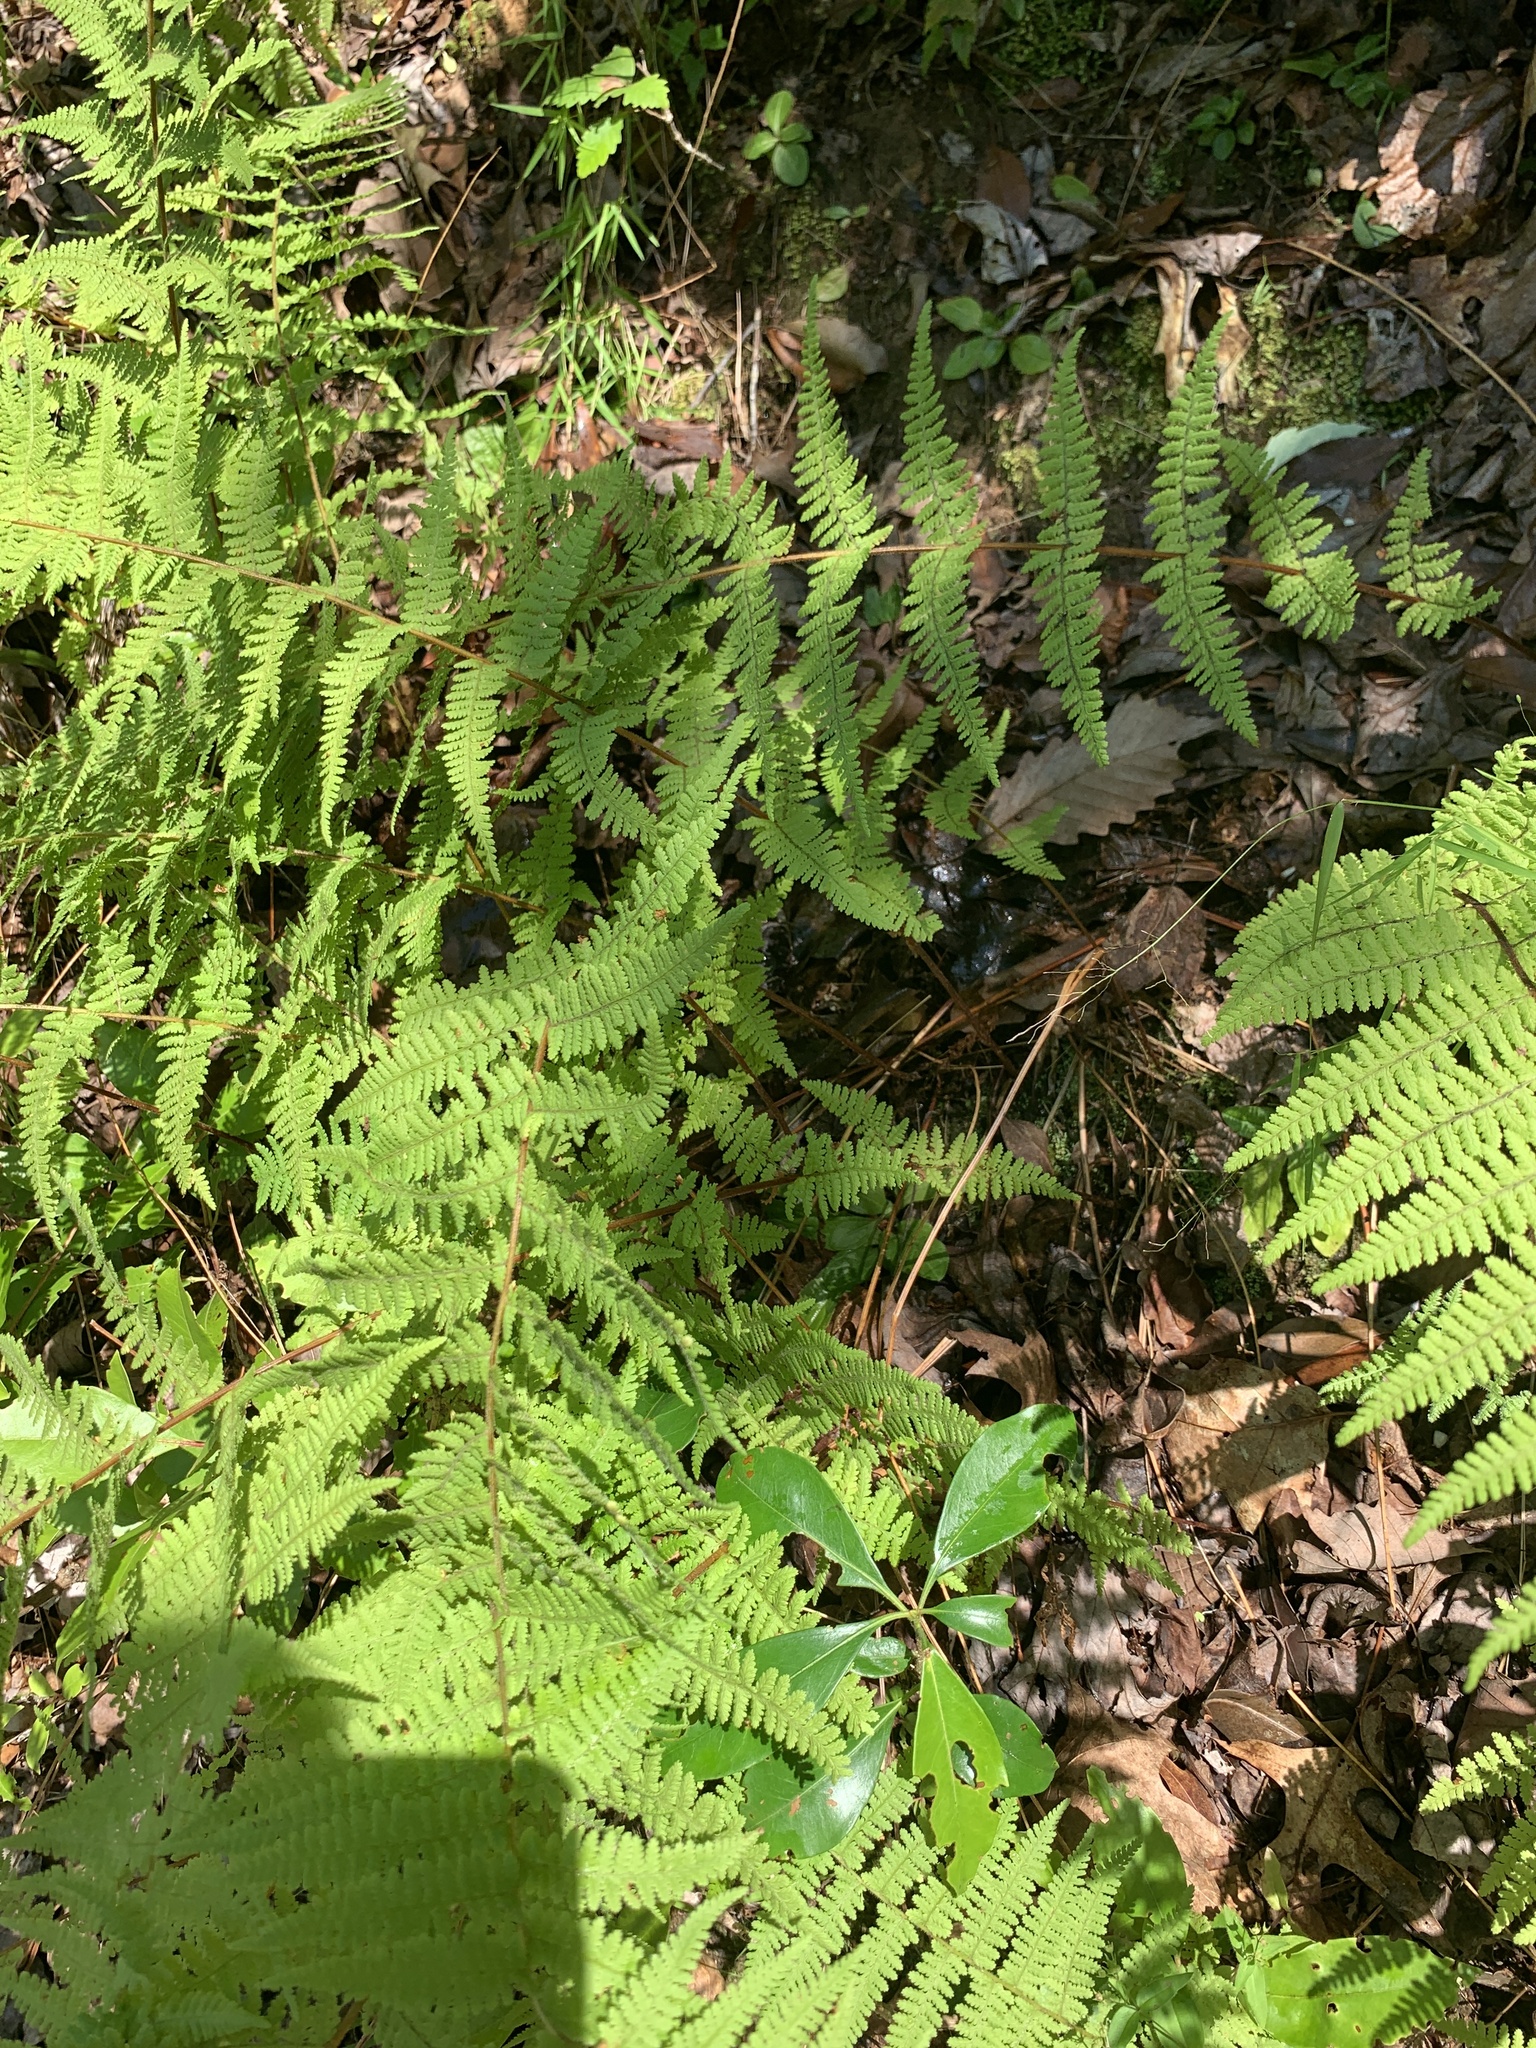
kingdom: Plantae
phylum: Tracheophyta
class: Polypodiopsida
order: Polypodiales
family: Dennstaedtiaceae
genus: Sitobolium
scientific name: Sitobolium punctilobum
